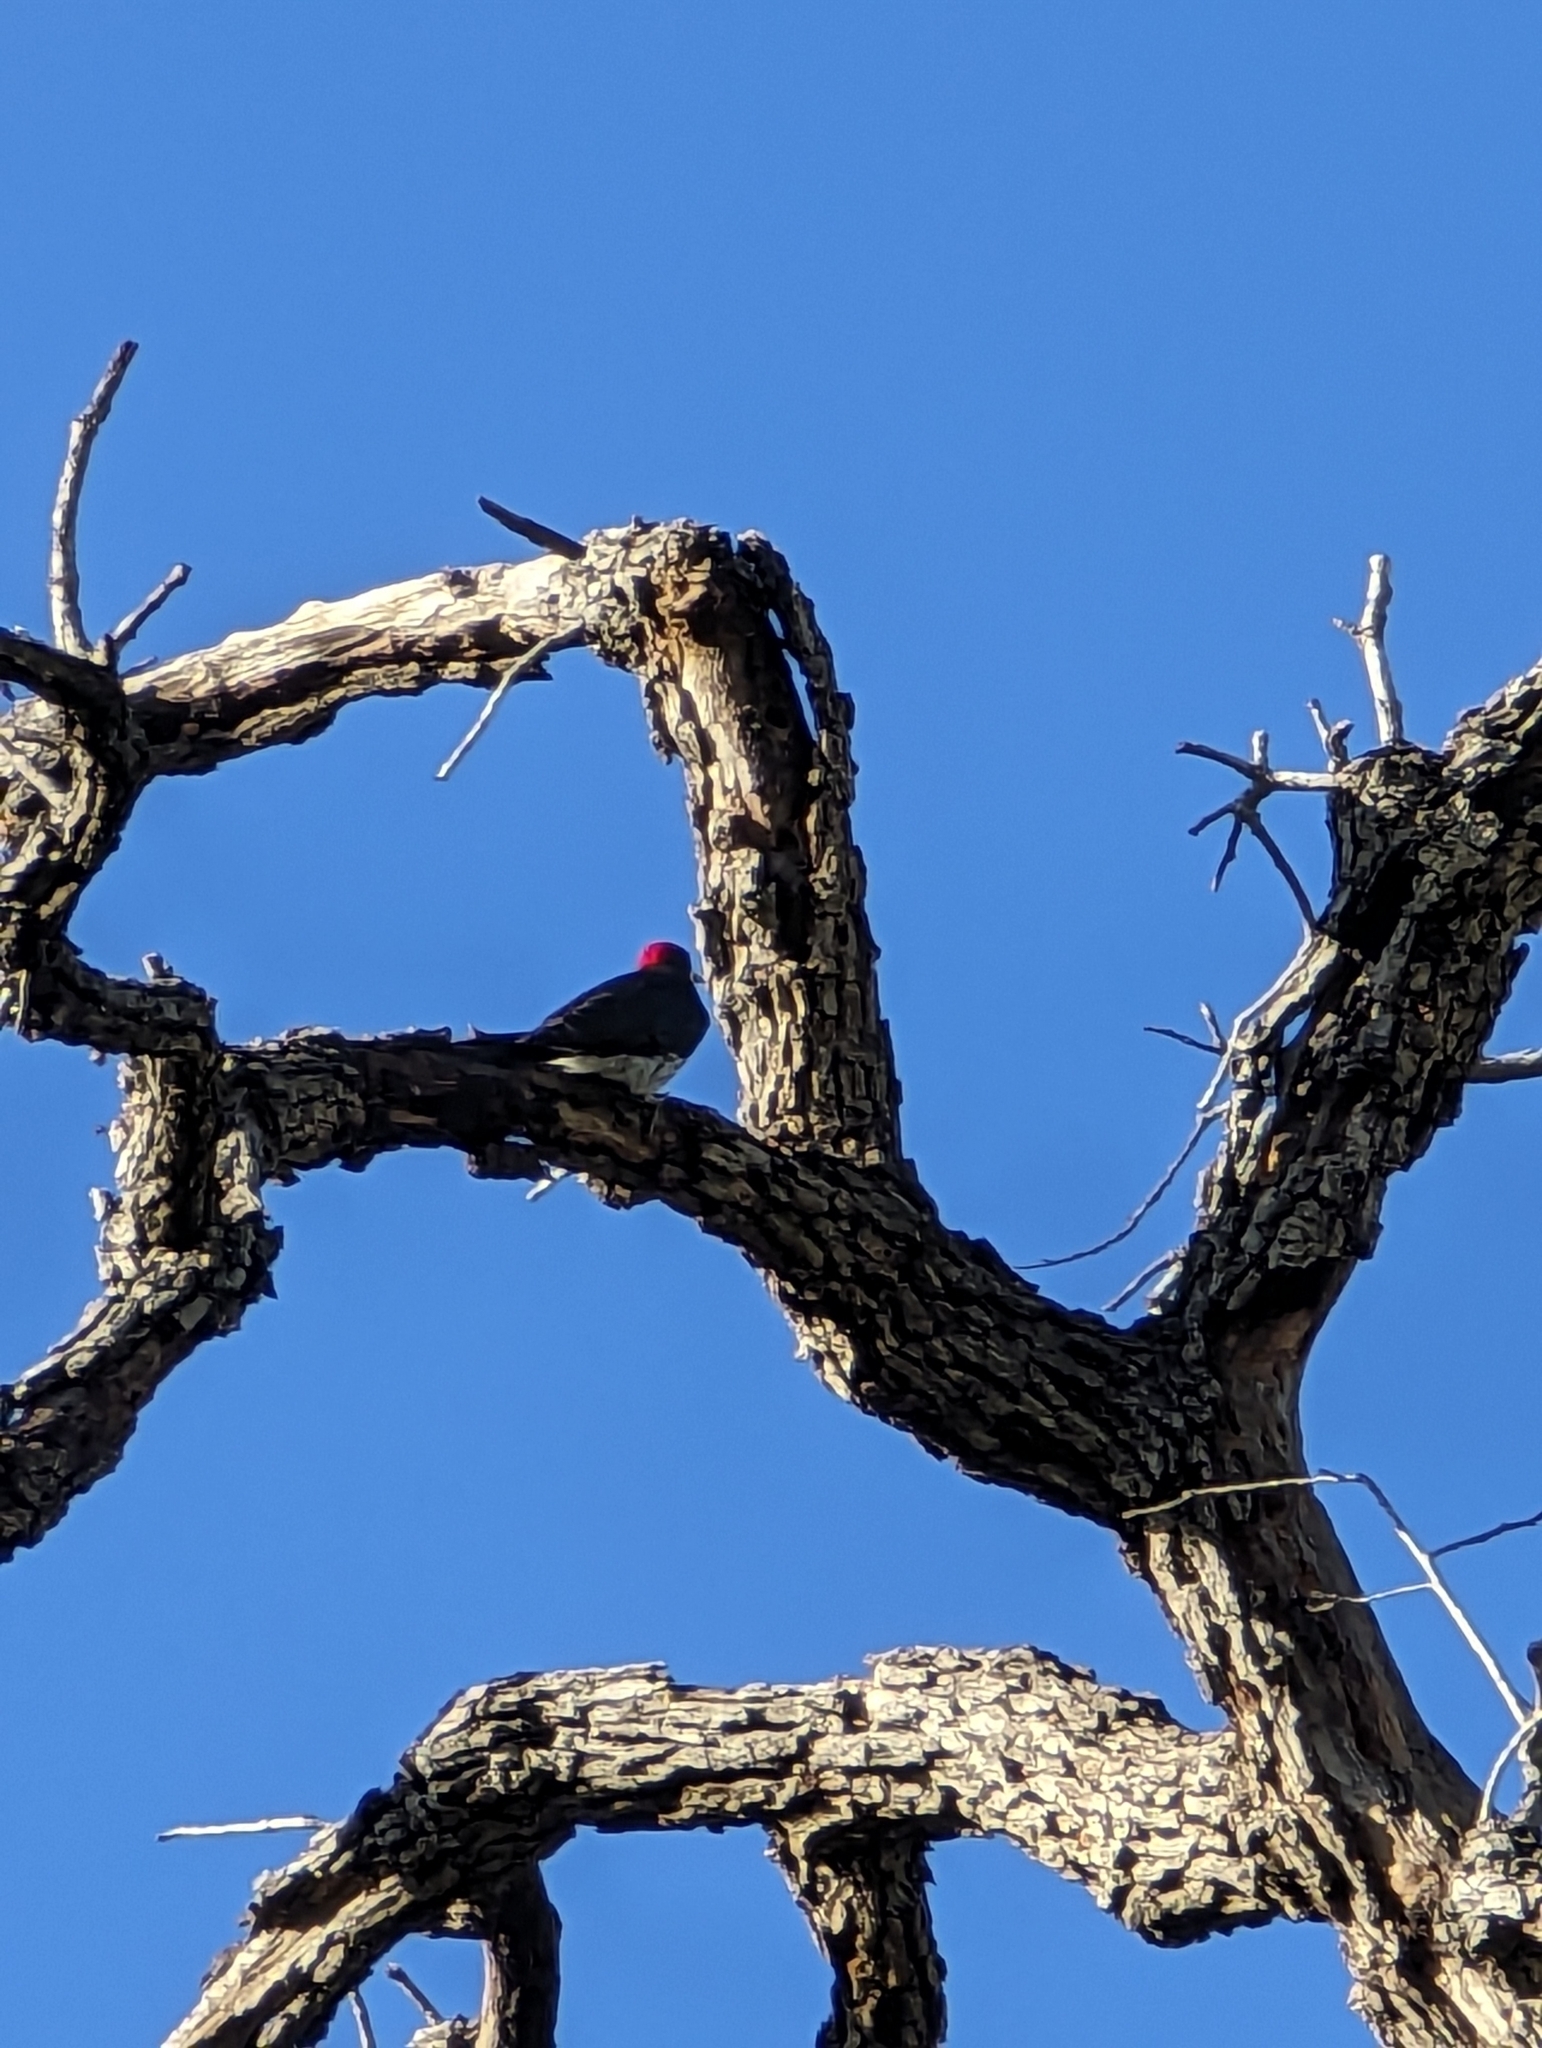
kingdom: Animalia
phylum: Chordata
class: Aves
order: Piciformes
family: Picidae
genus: Melanerpes
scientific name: Melanerpes formicivorus
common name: Acorn woodpecker
